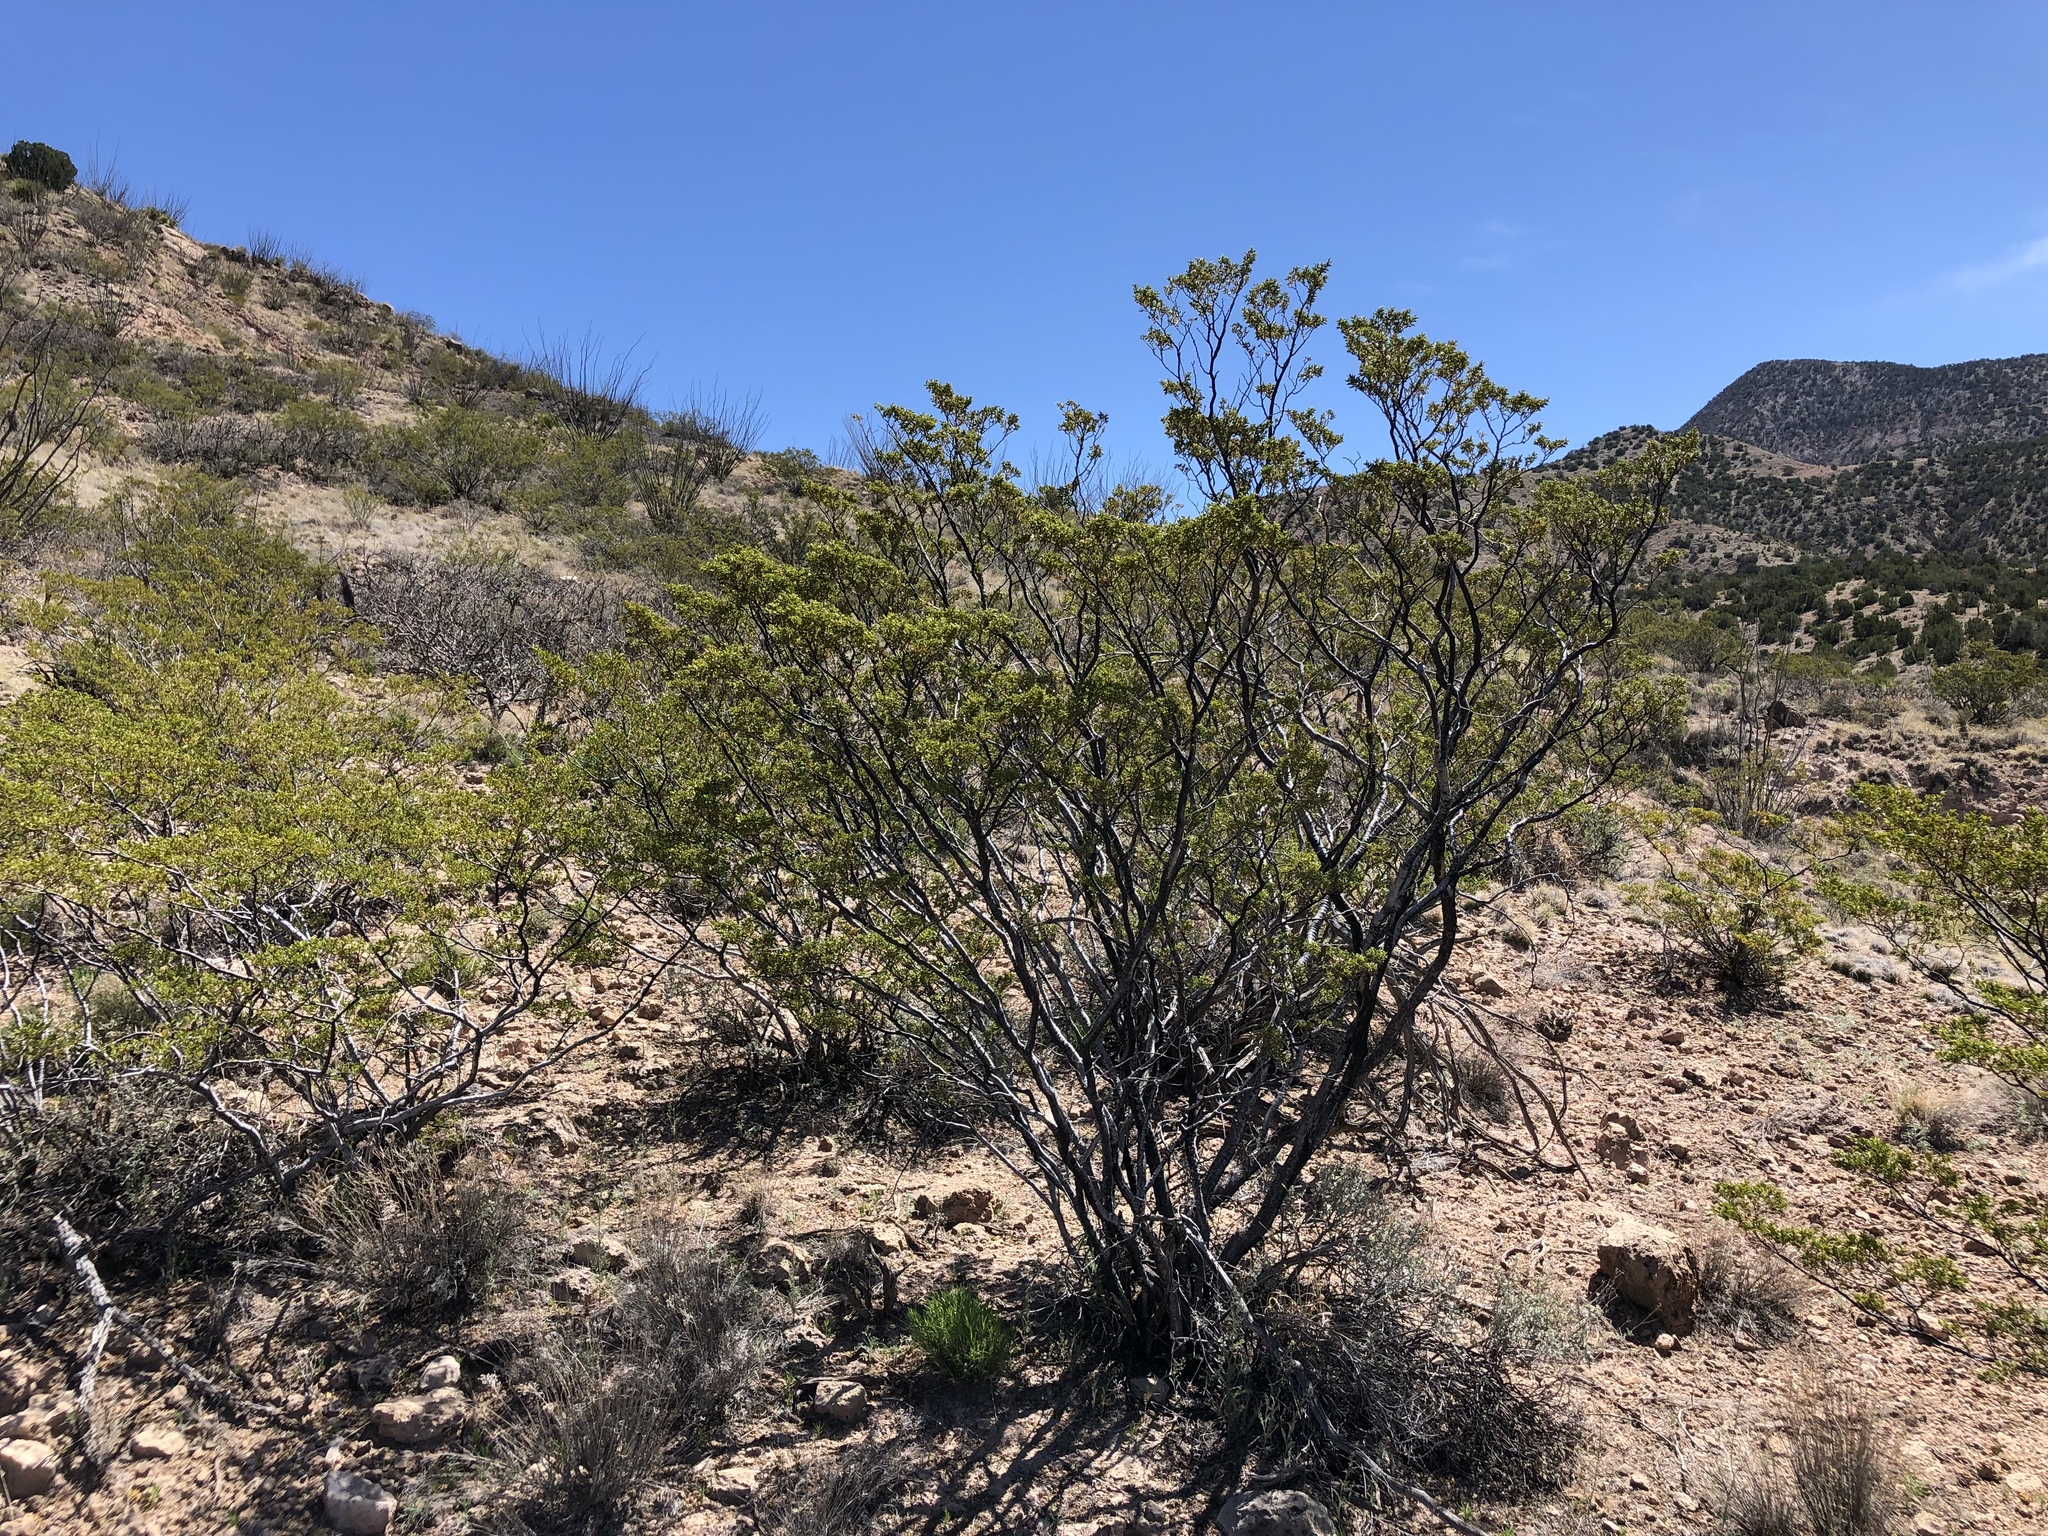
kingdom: Plantae
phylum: Tracheophyta
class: Magnoliopsida
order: Zygophyllales
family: Zygophyllaceae
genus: Larrea
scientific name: Larrea tridentata
